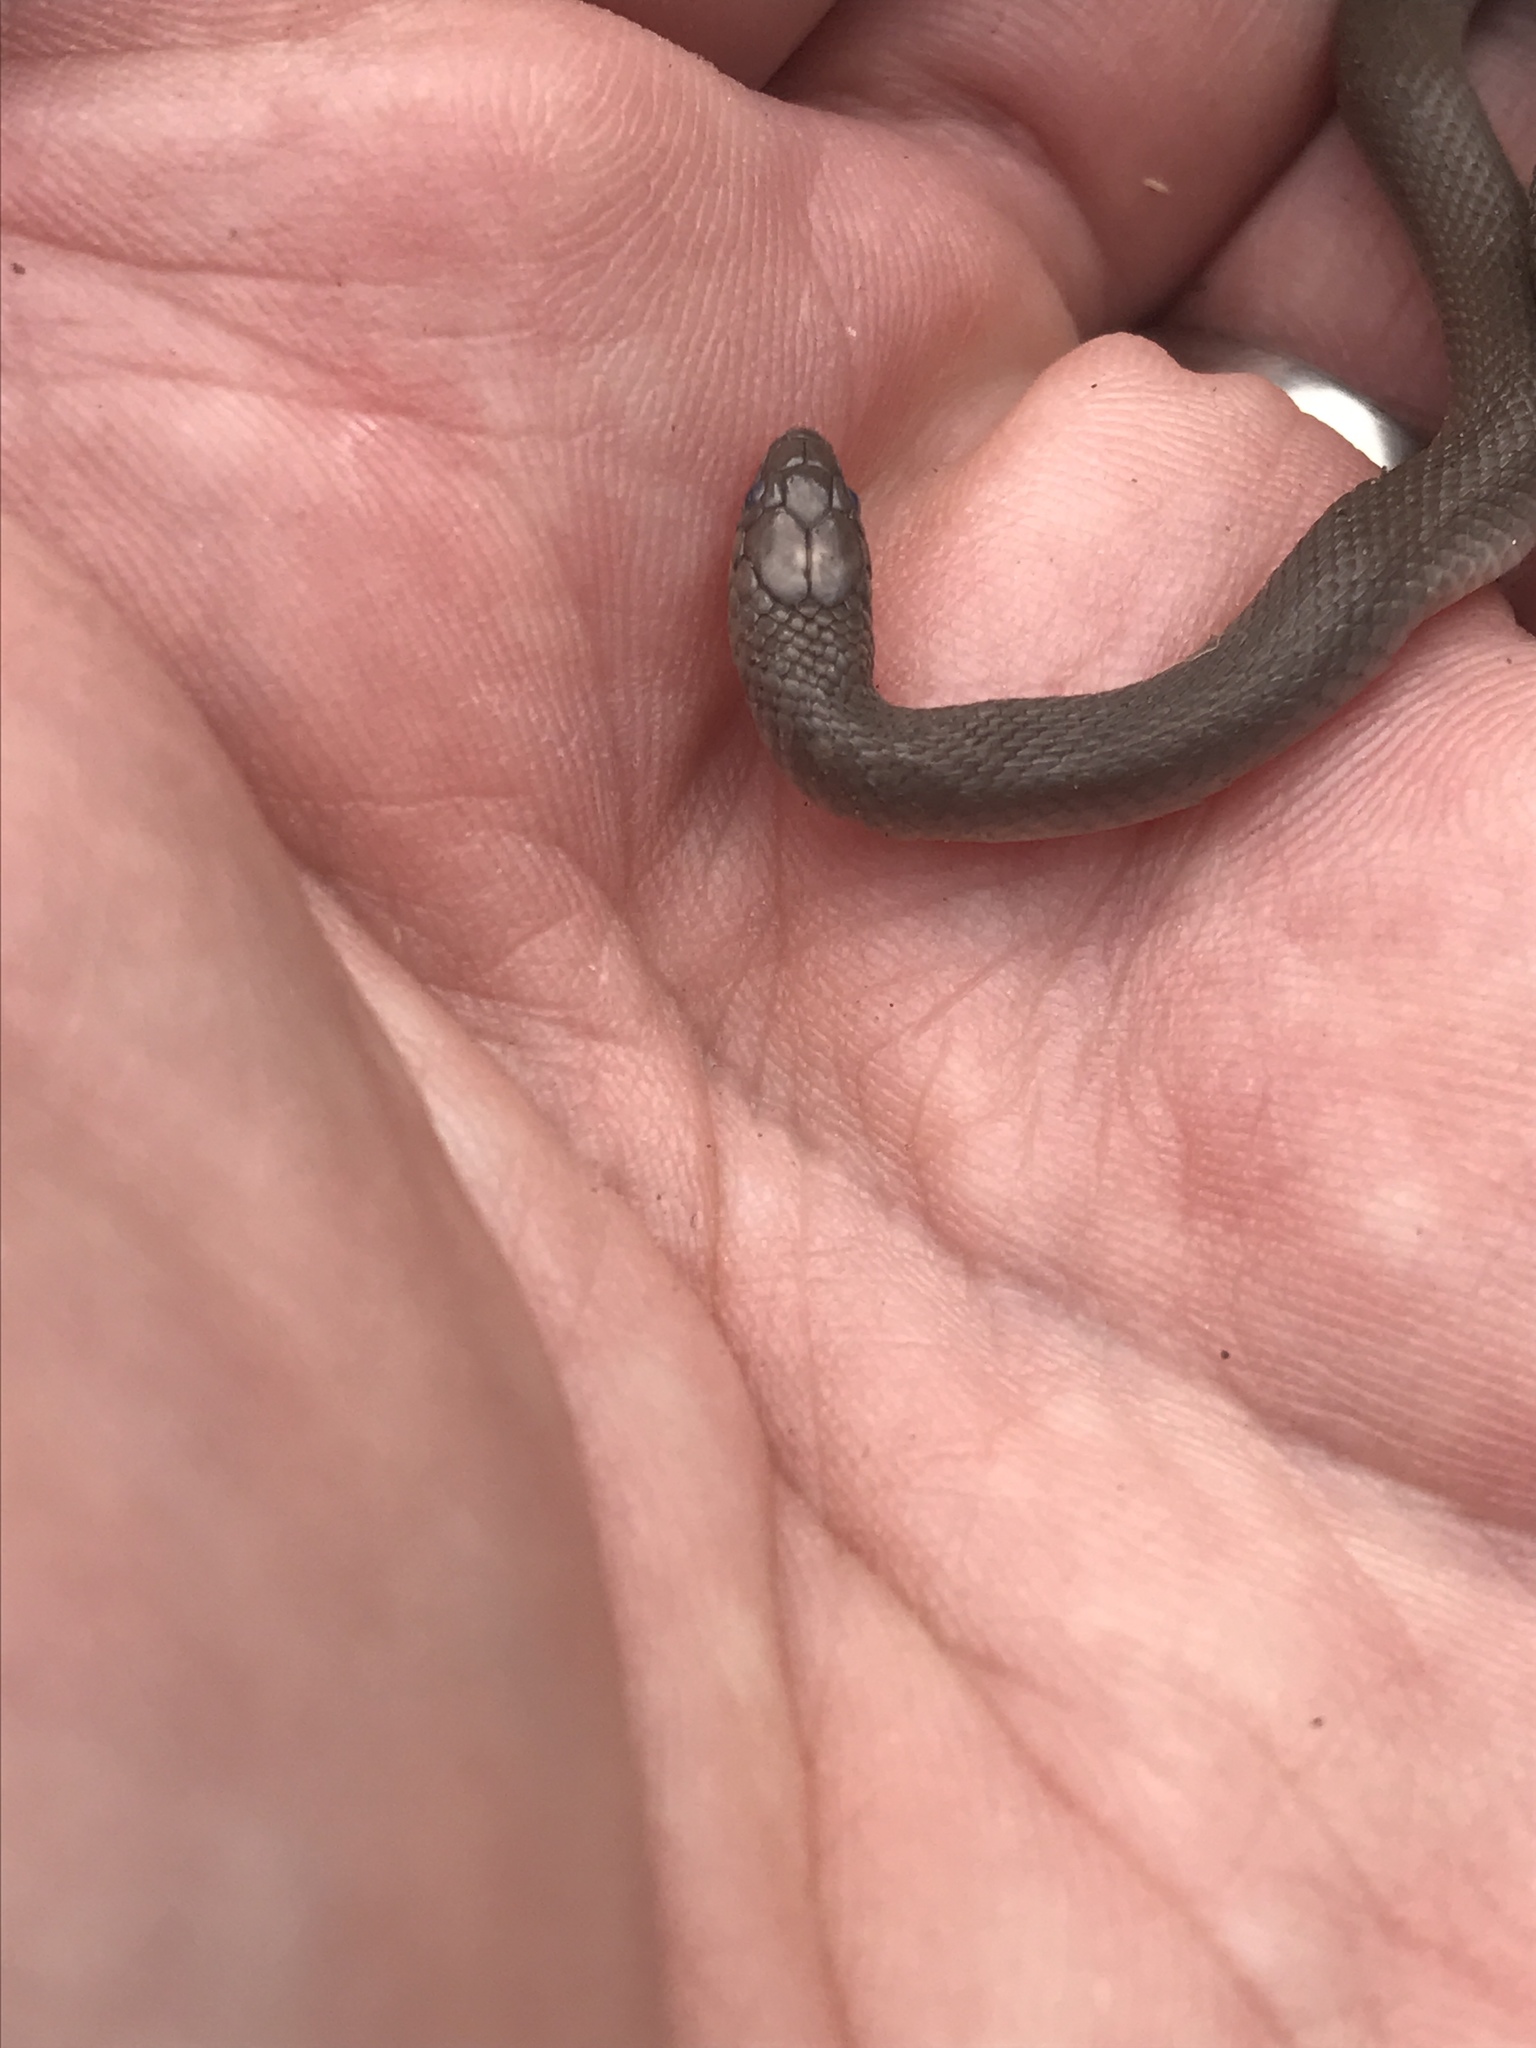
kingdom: Animalia
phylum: Chordata
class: Squamata
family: Colubridae
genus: Haldea
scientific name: Haldea striatula
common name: Rough earth snake
